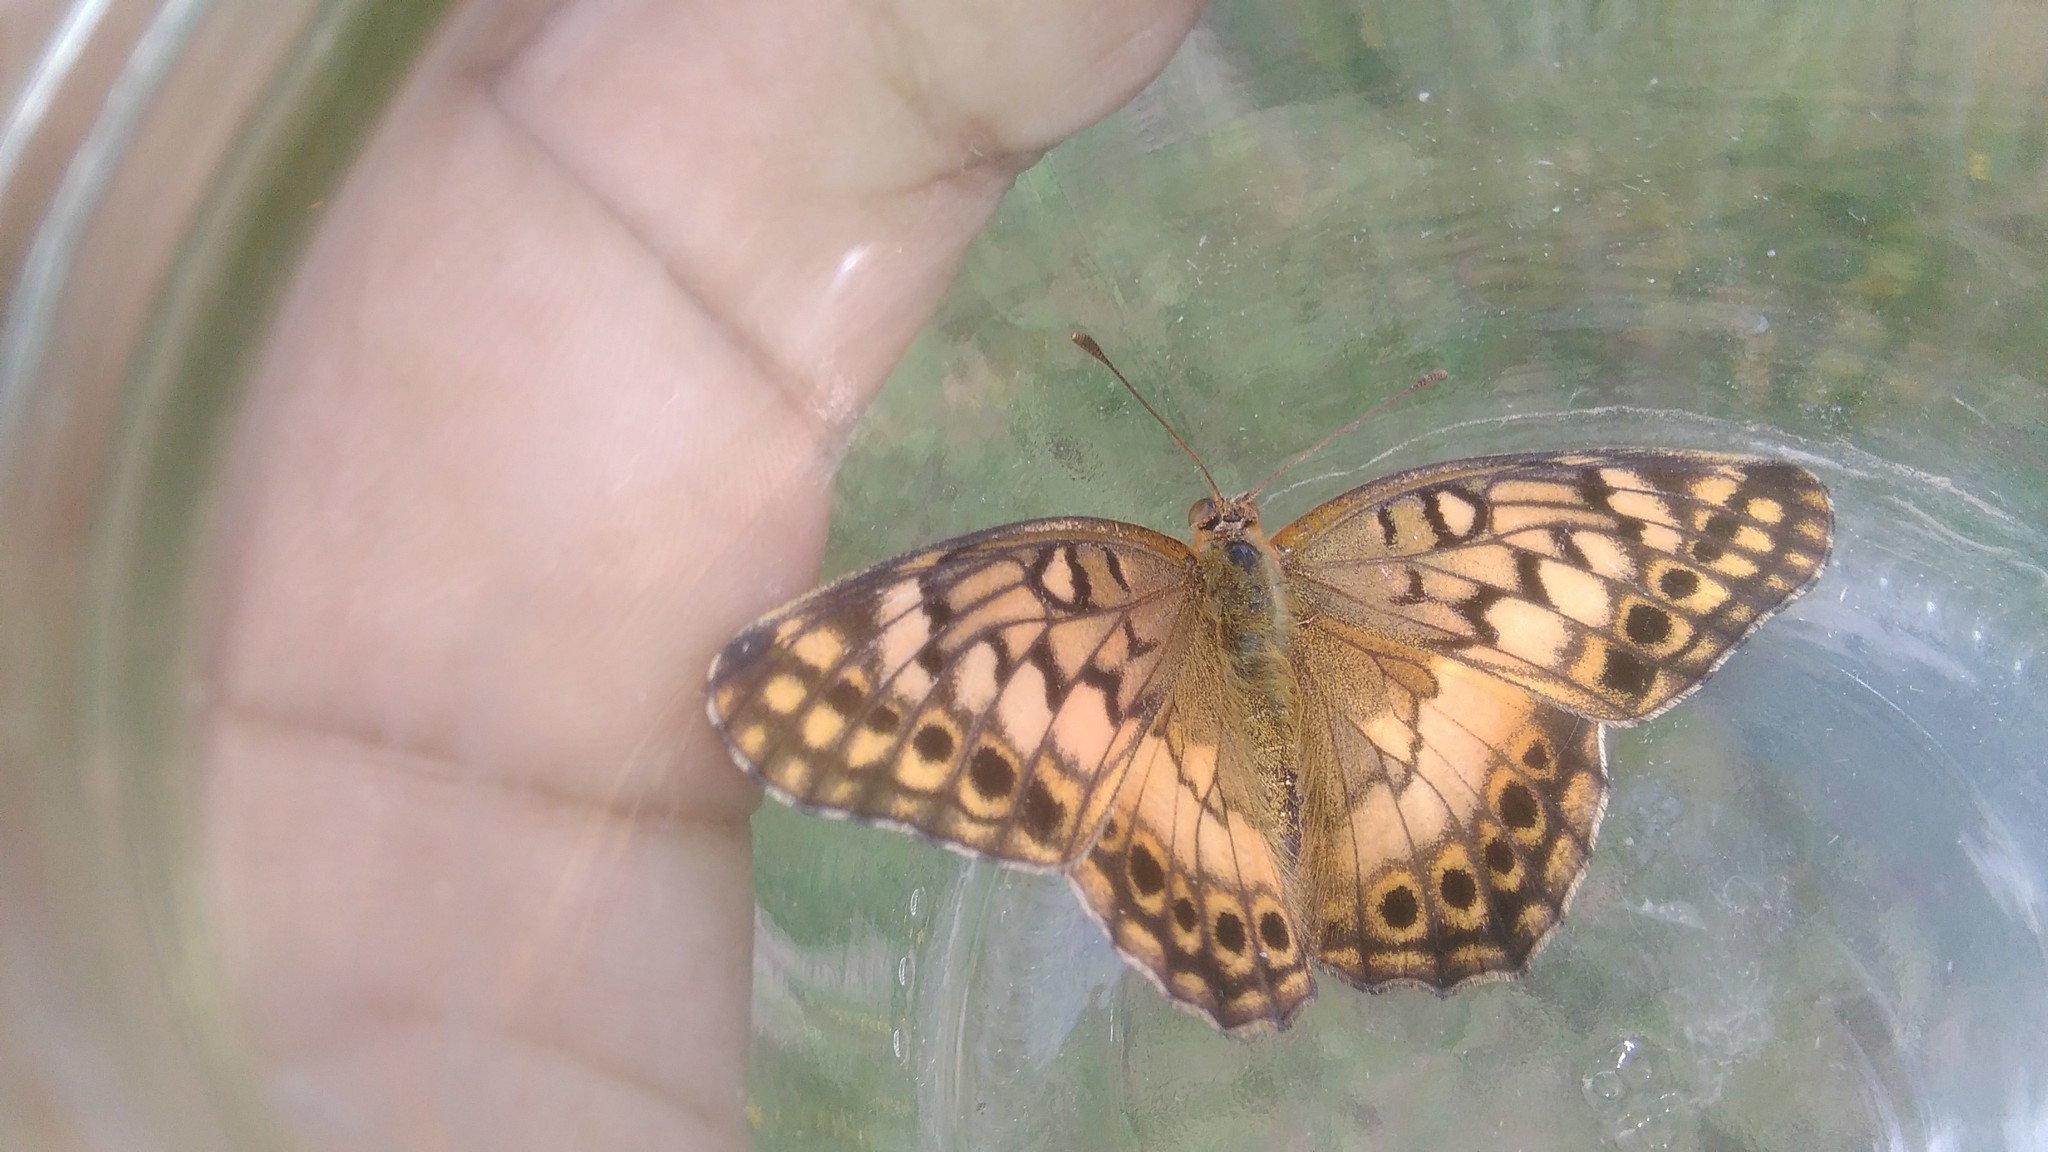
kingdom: Animalia
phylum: Arthropoda
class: Insecta
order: Lepidoptera
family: Nymphalidae
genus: Euptoieta
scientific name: Euptoieta hortensia
